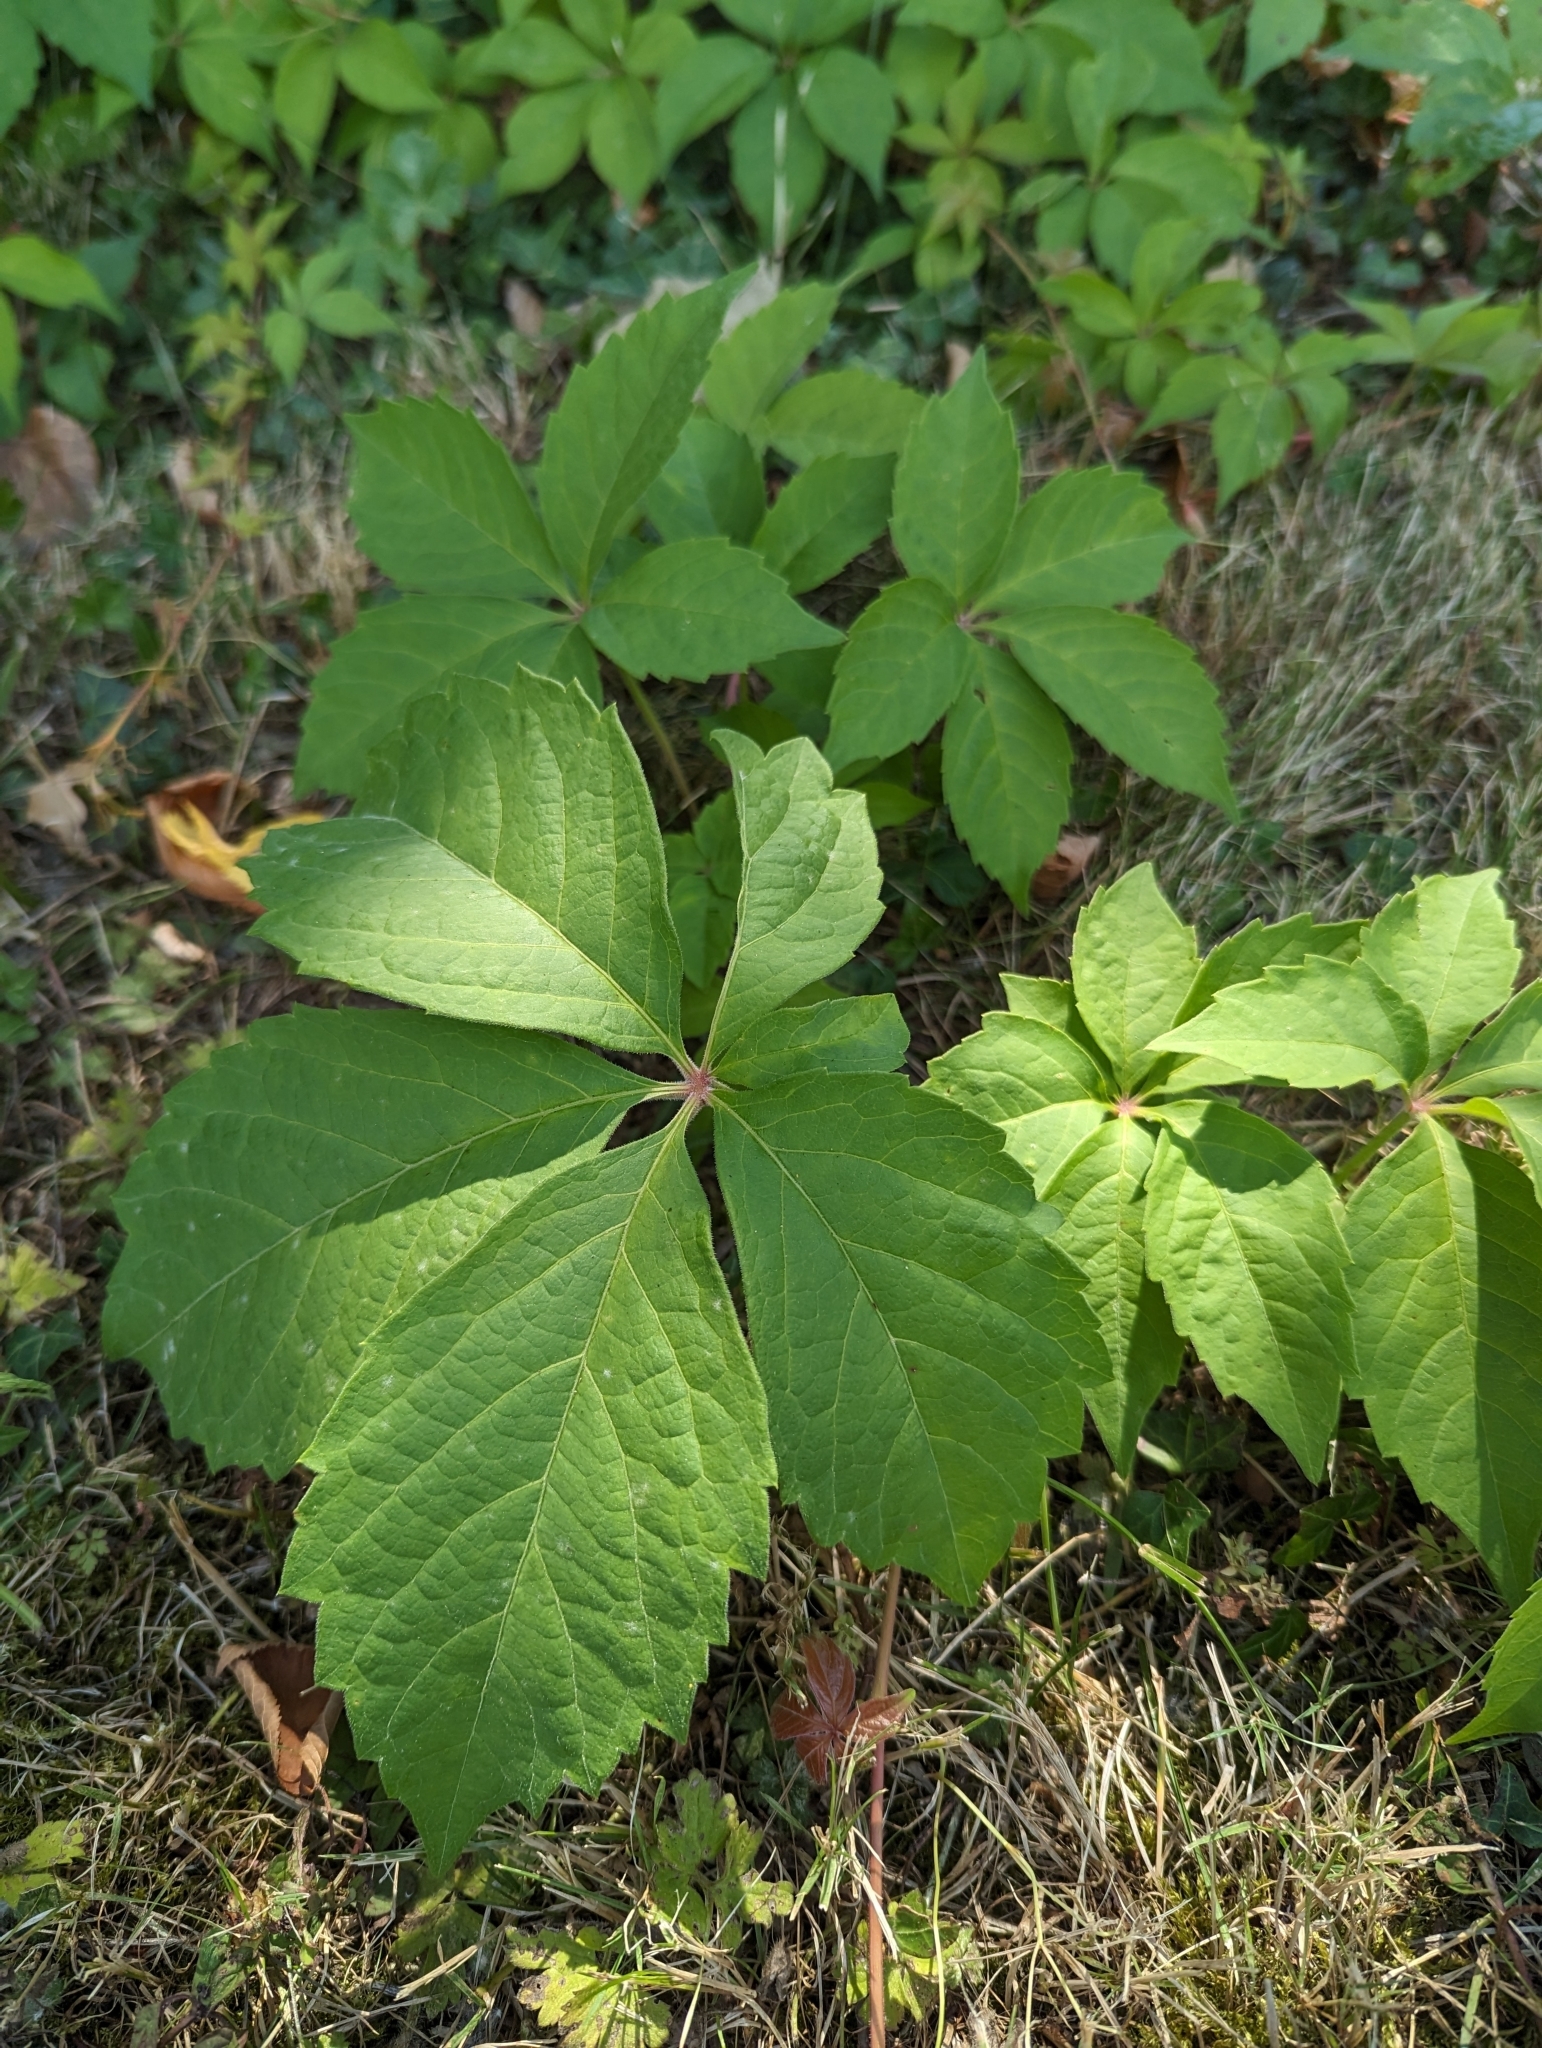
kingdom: Plantae
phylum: Tracheophyta
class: Magnoliopsida
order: Vitales
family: Vitaceae
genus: Parthenocissus
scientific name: Parthenocissus quinquefolia
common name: Virginia-creeper
